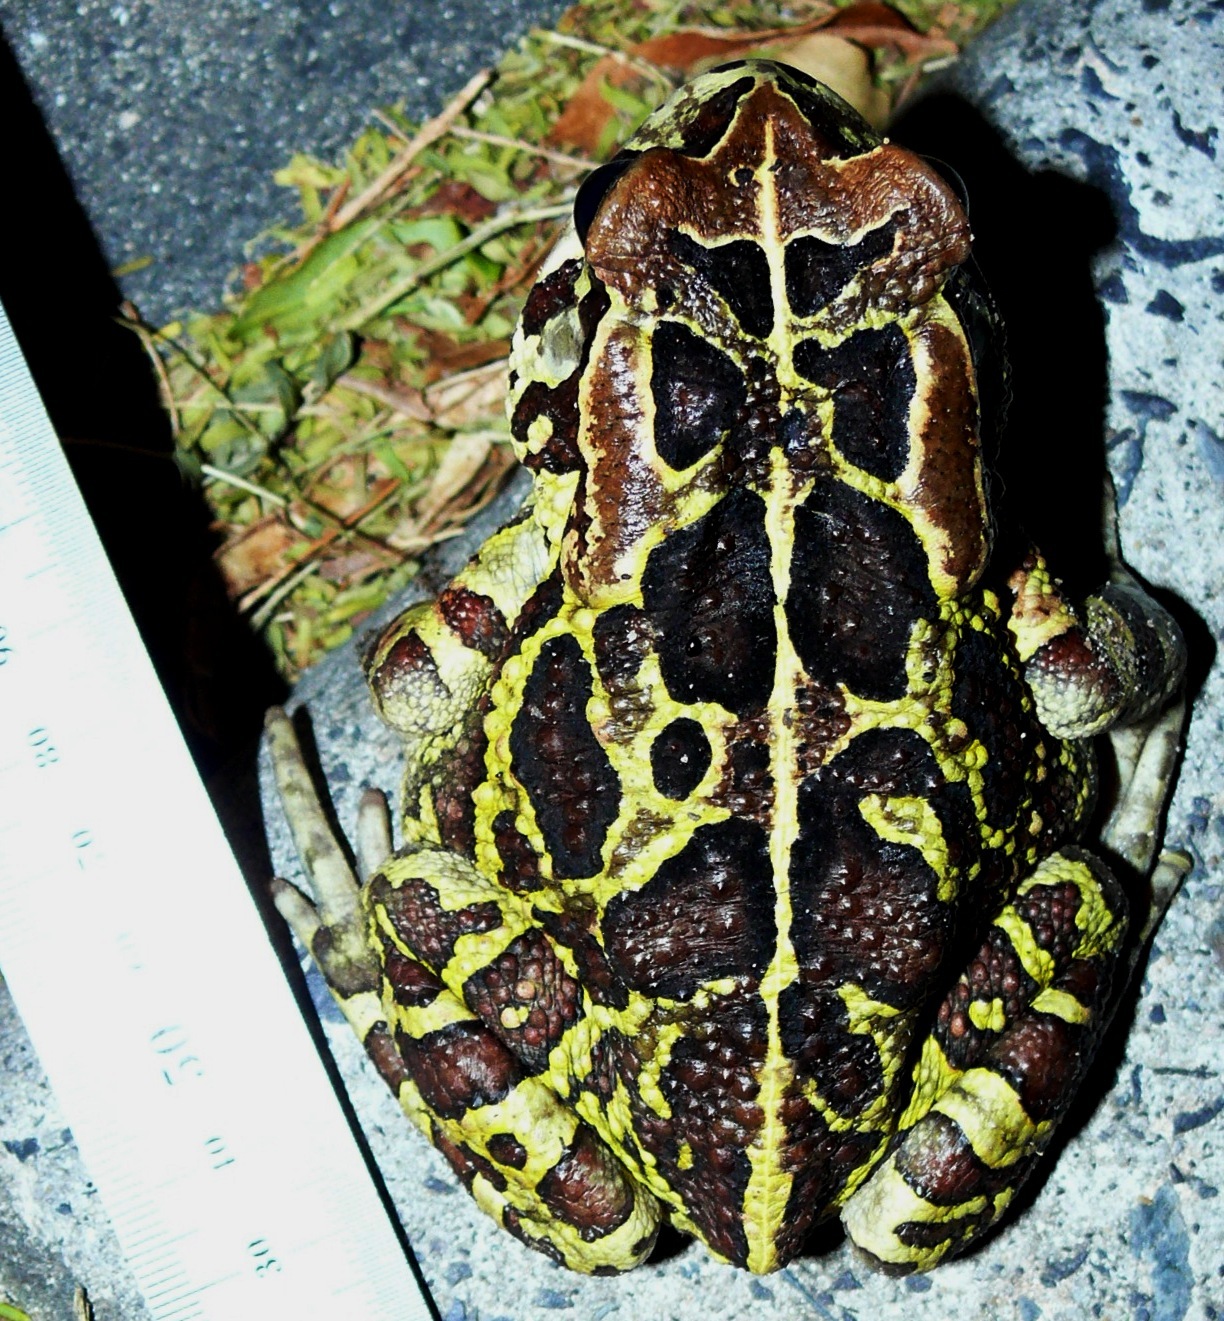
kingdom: Animalia
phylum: Chordata
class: Amphibia
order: Anura
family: Bufonidae
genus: Sclerophrys
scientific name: Sclerophrys pantherina
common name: Panther toad
